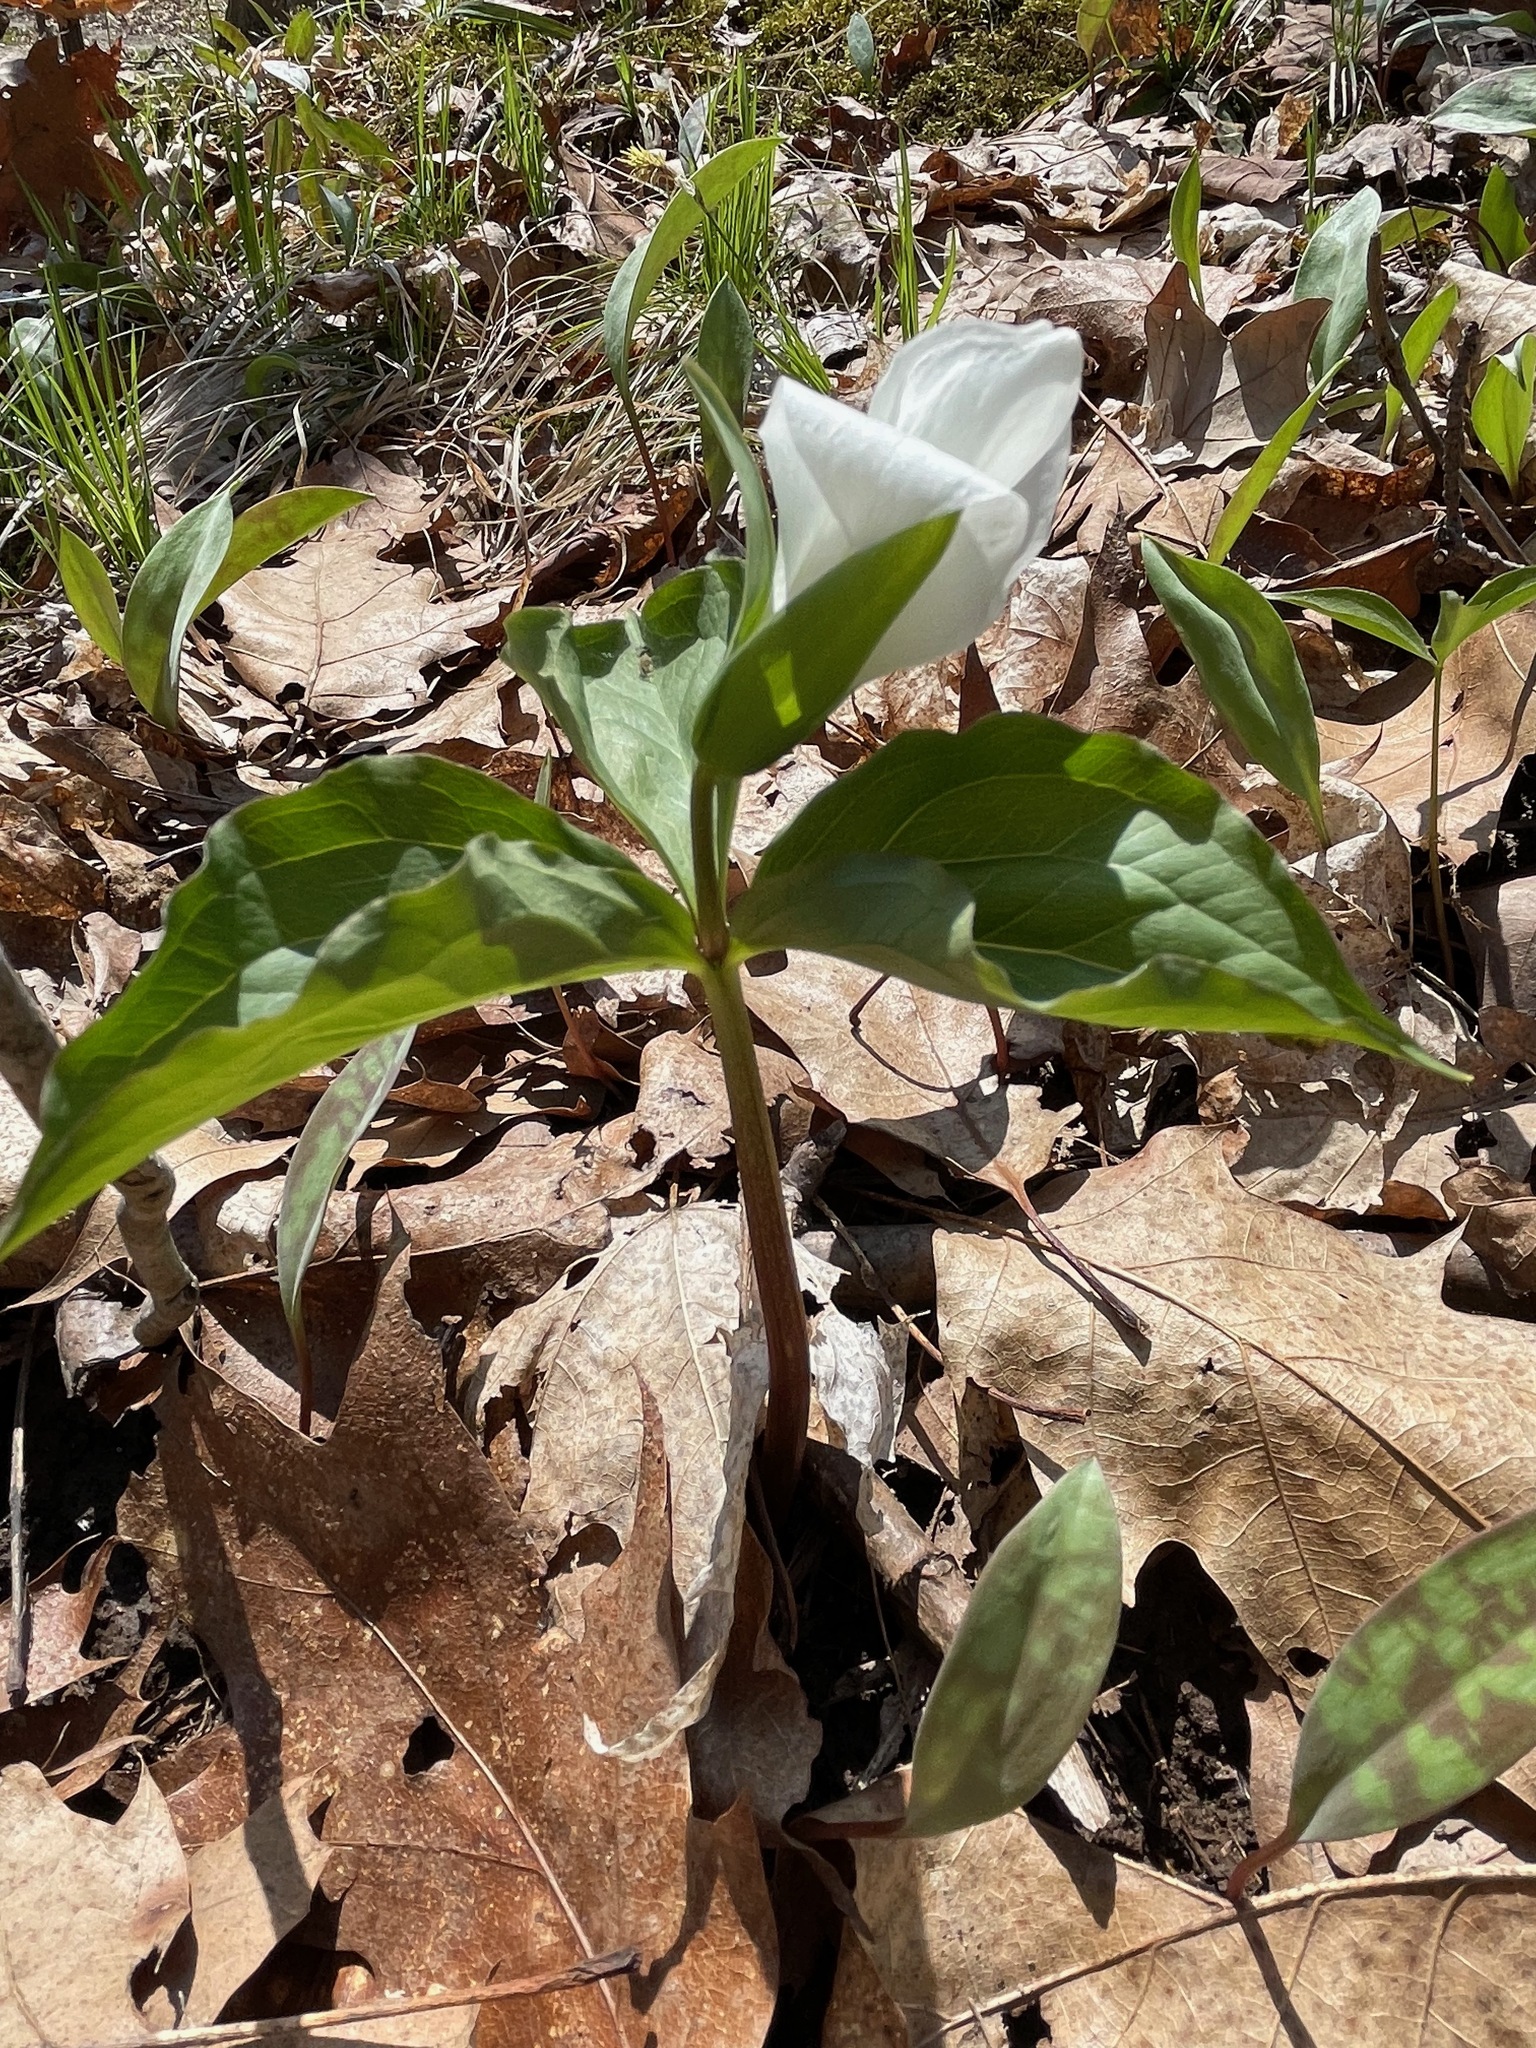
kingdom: Plantae
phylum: Tracheophyta
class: Liliopsida
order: Liliales
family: Melanthiaceae
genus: Trillium
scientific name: Trillium grandiflorum
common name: Great white trillium
